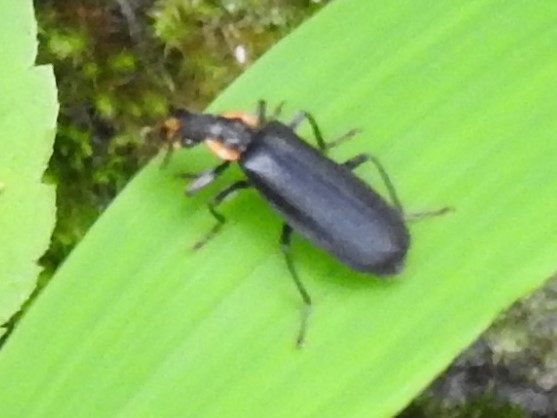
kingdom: Animalia
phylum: Arthropoda
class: Insecta
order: Coleoptera
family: Cantharidae
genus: Podabrus
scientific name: Podabrus rugosulus
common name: Wrinkled soldier beetle
